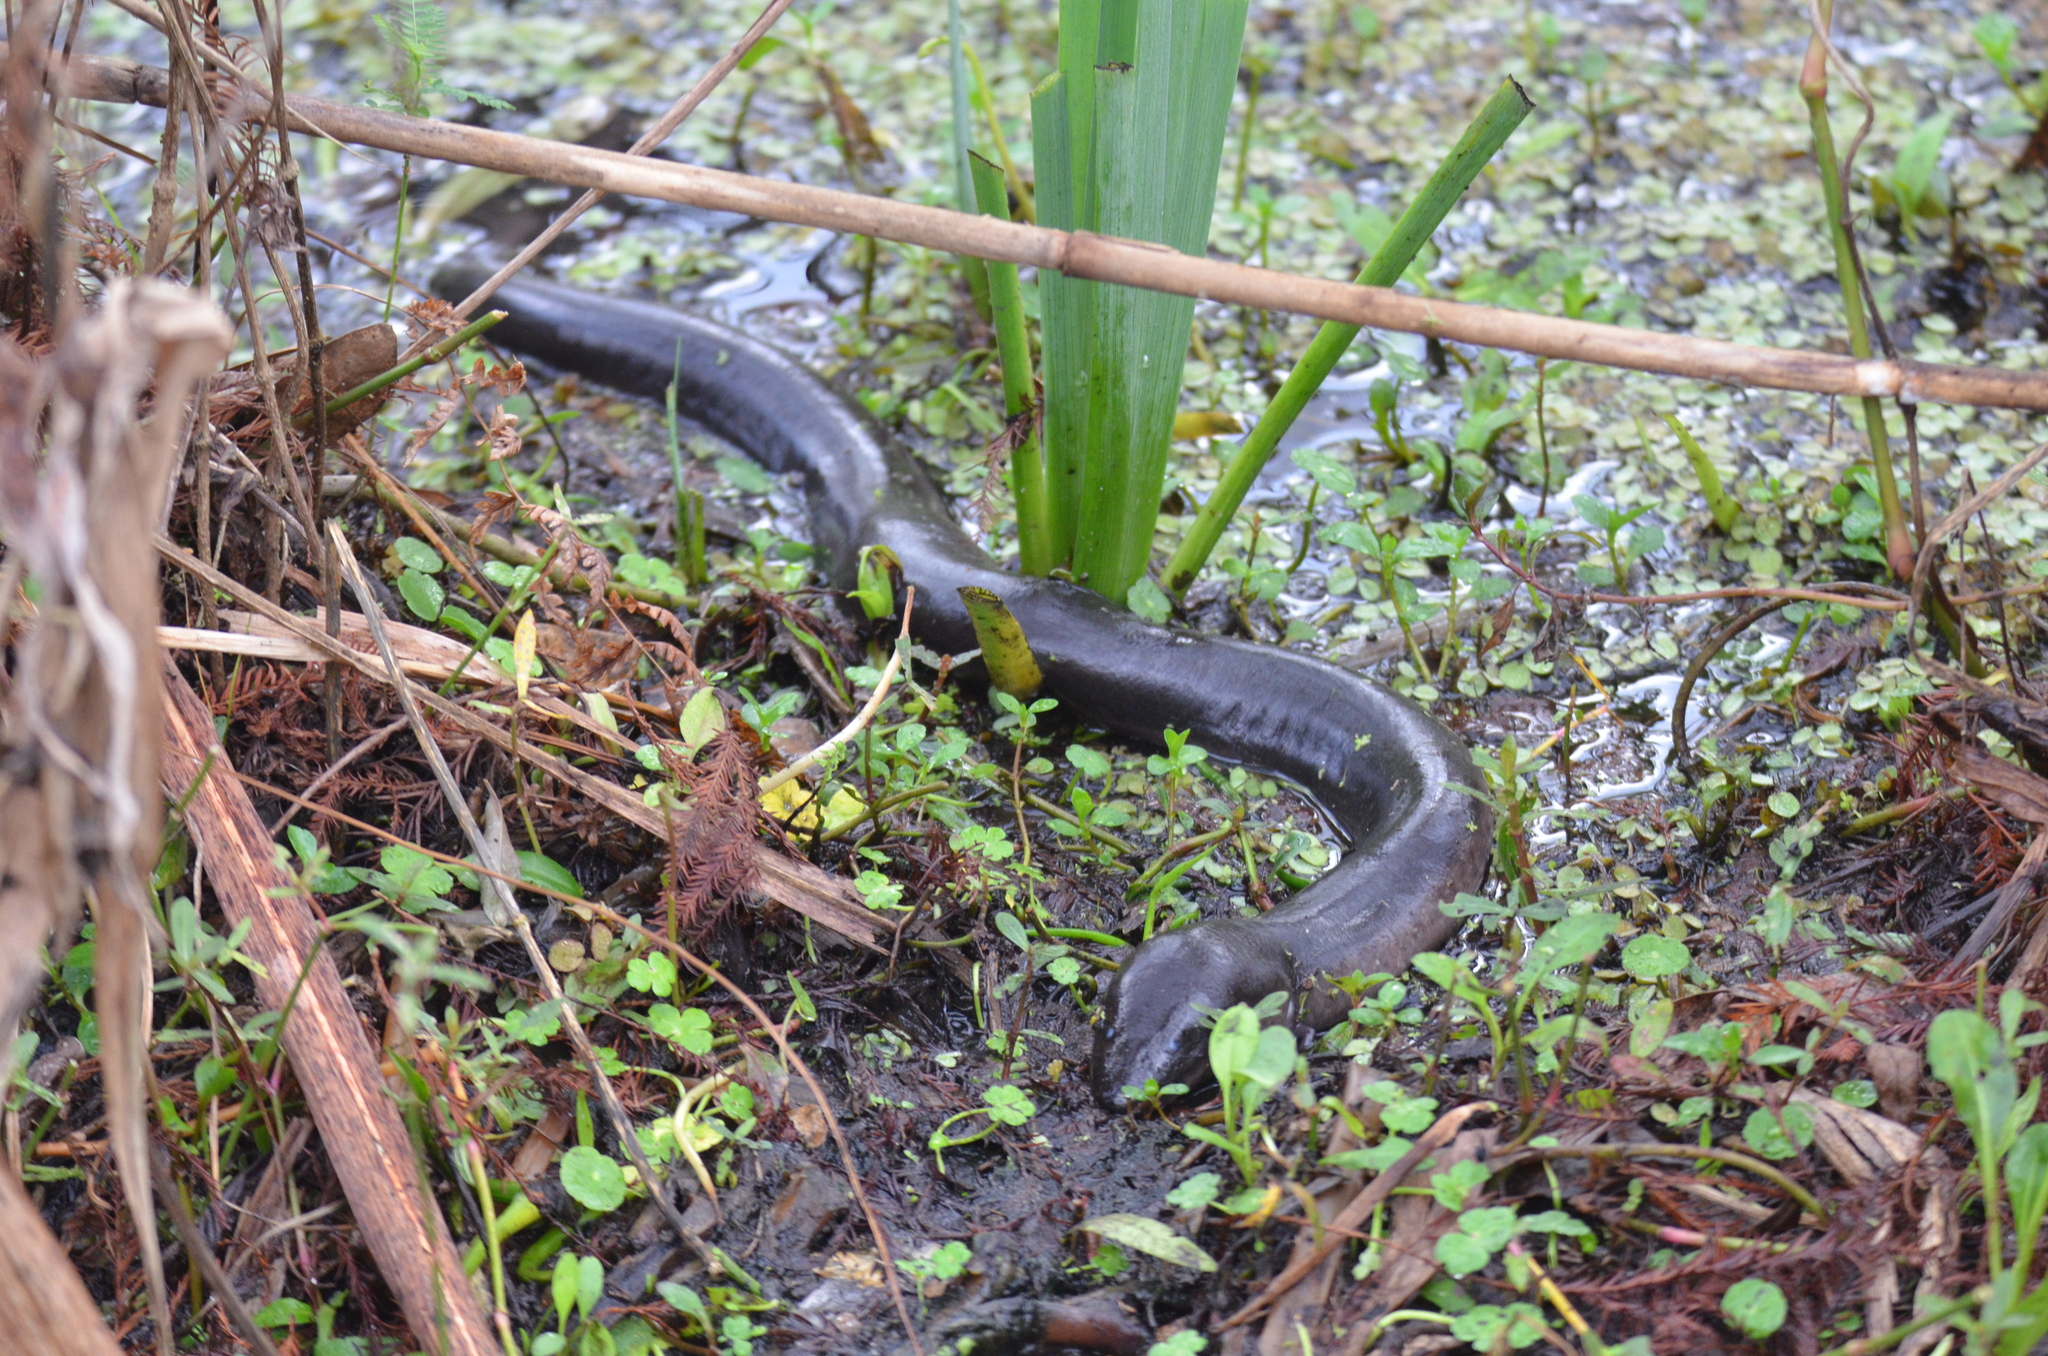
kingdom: Animalia
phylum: Chordata
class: Amphibia
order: Caudata
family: Amphiumidae
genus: Amphiuma
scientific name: Amphiuma tridactylum
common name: Three-toed amphiuma
